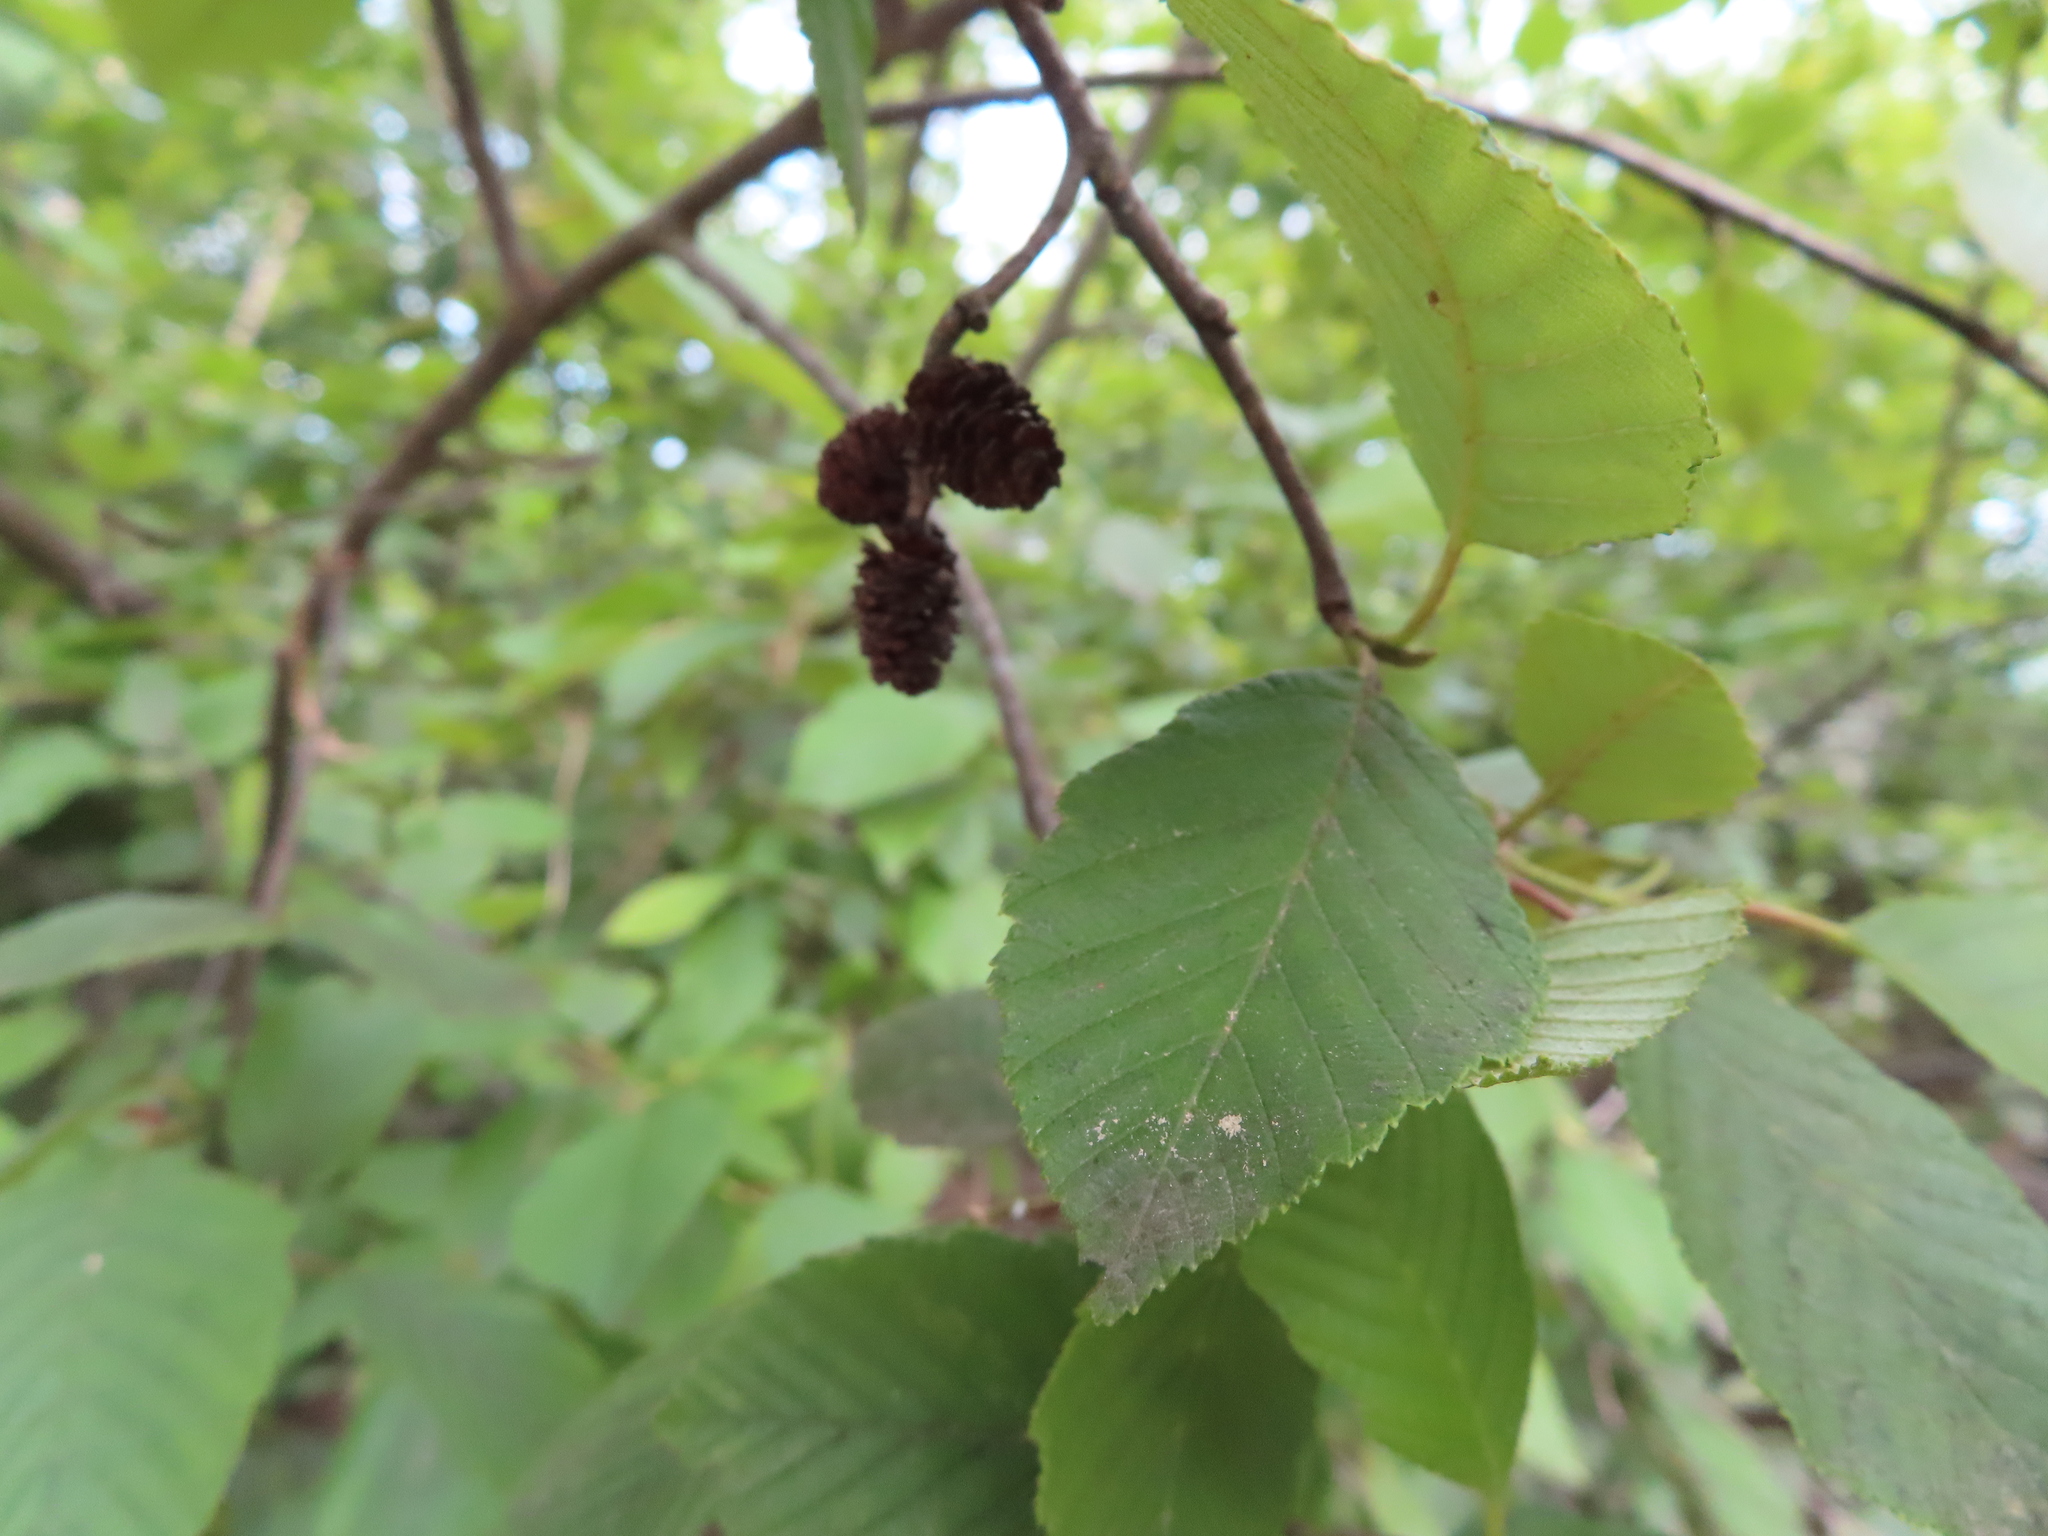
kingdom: Plantae
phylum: Tracheophyta
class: Magnoliopsida
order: Fagales
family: Betulaceae
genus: Alnus
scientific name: Alnus incana
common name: Grey alder
